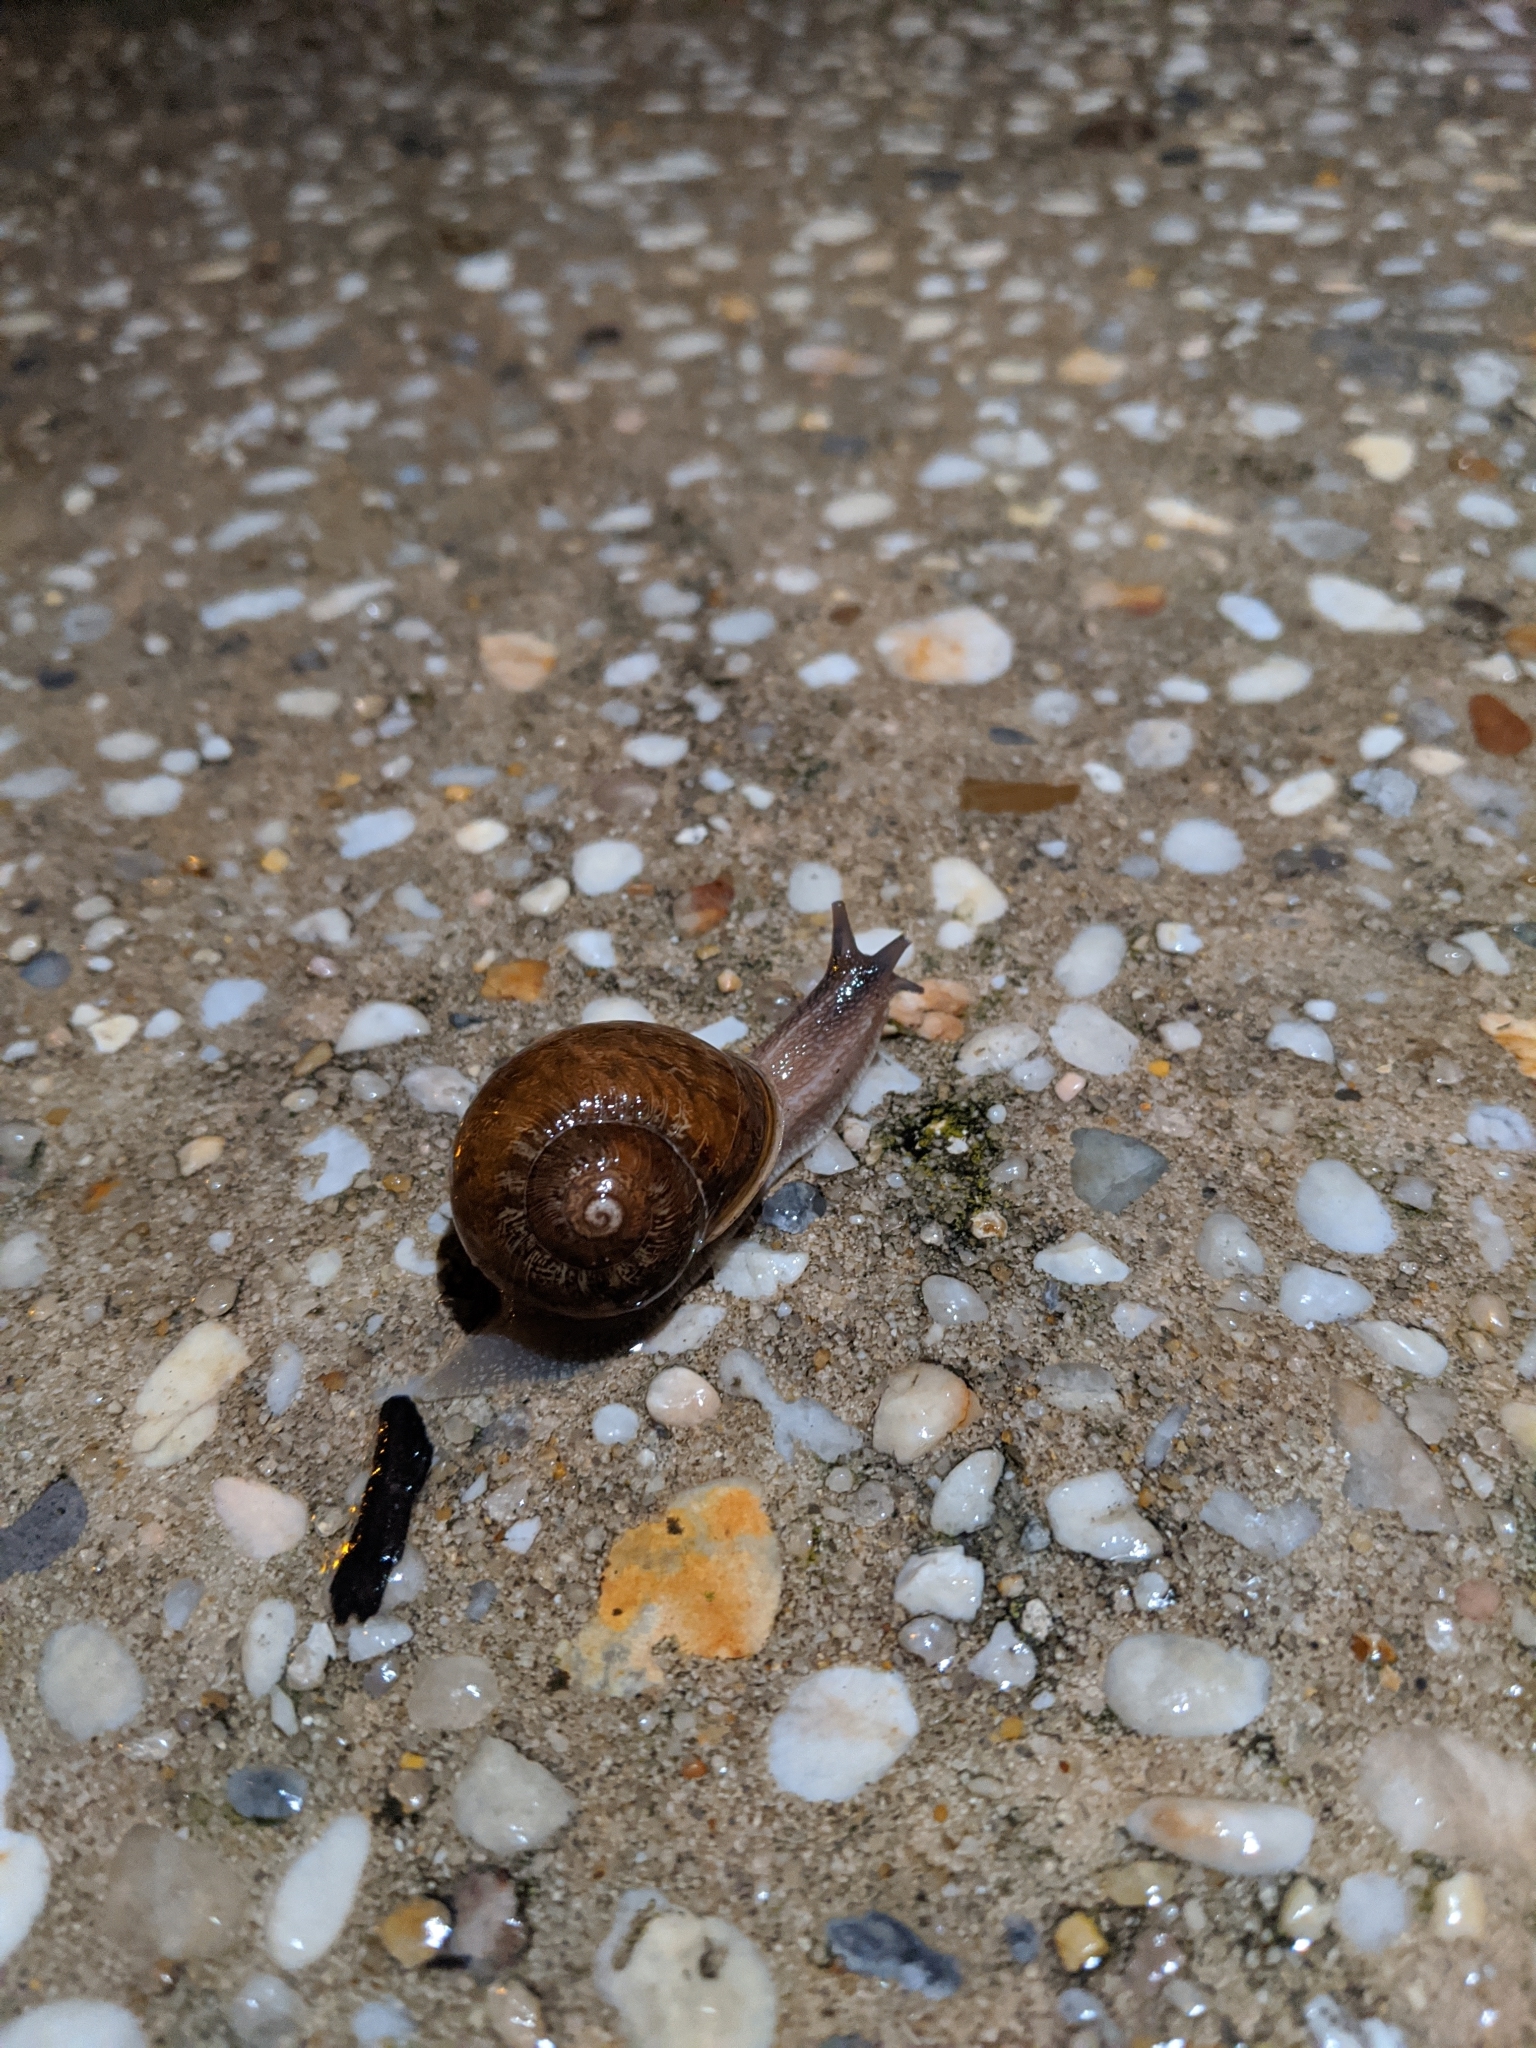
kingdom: Animalia
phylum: Mollusca
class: Gastropoda
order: Stylommatophora
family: Helicidae
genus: Cornu
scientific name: Cornu aspersum
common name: Brown garden snail
